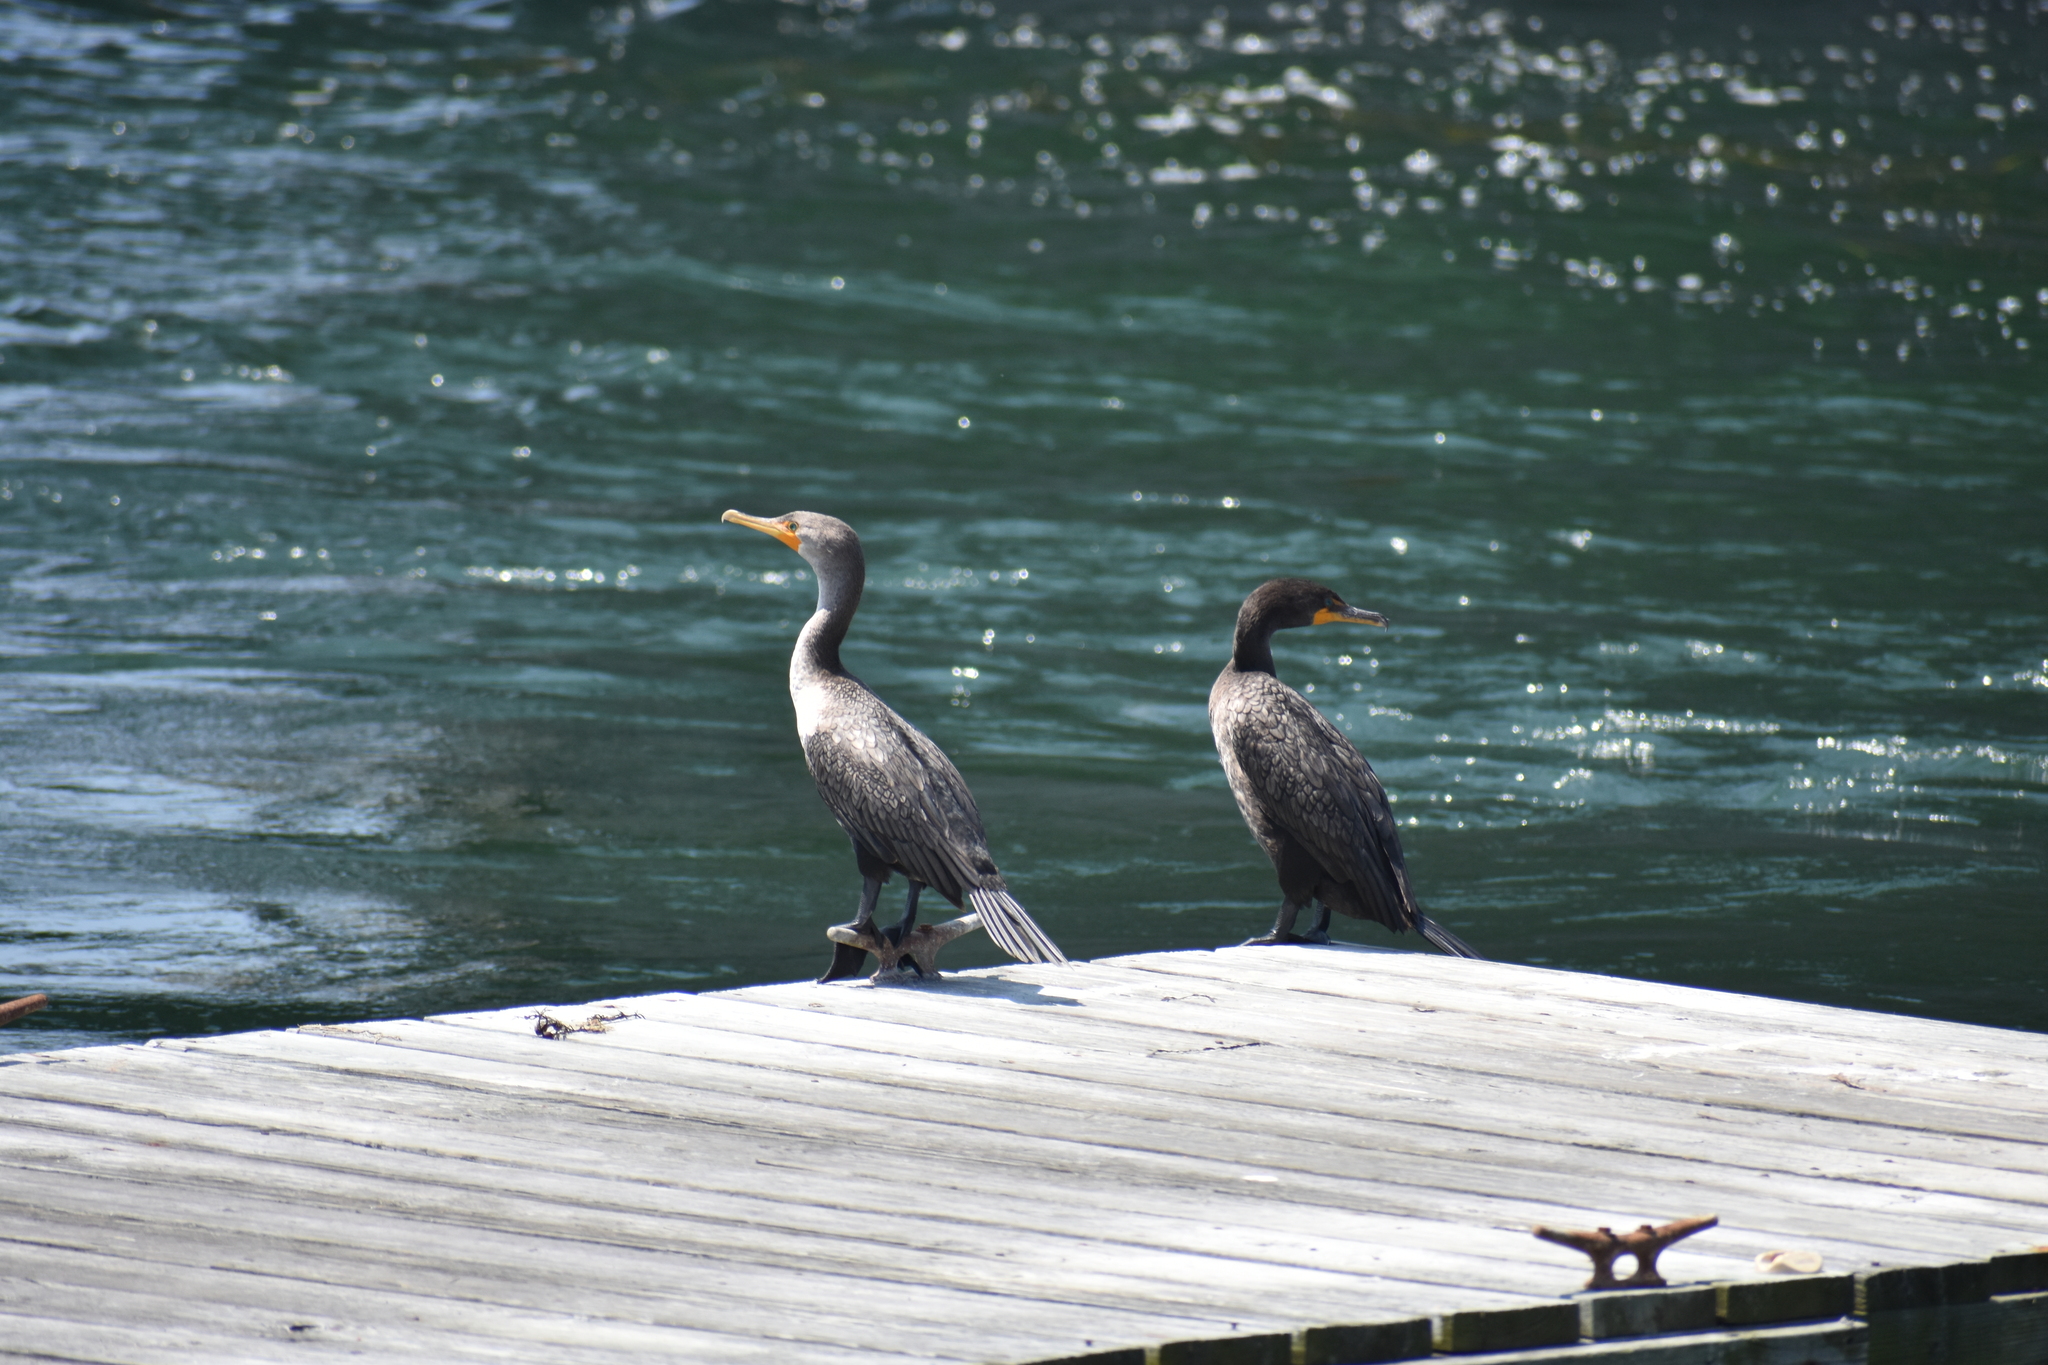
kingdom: Animalia
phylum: Chordata
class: Aves
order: Suliformes
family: Phalacrocoracidae
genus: Phalacrocorax
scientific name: Phalacrocorax auritus
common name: Double-crested cormorant
